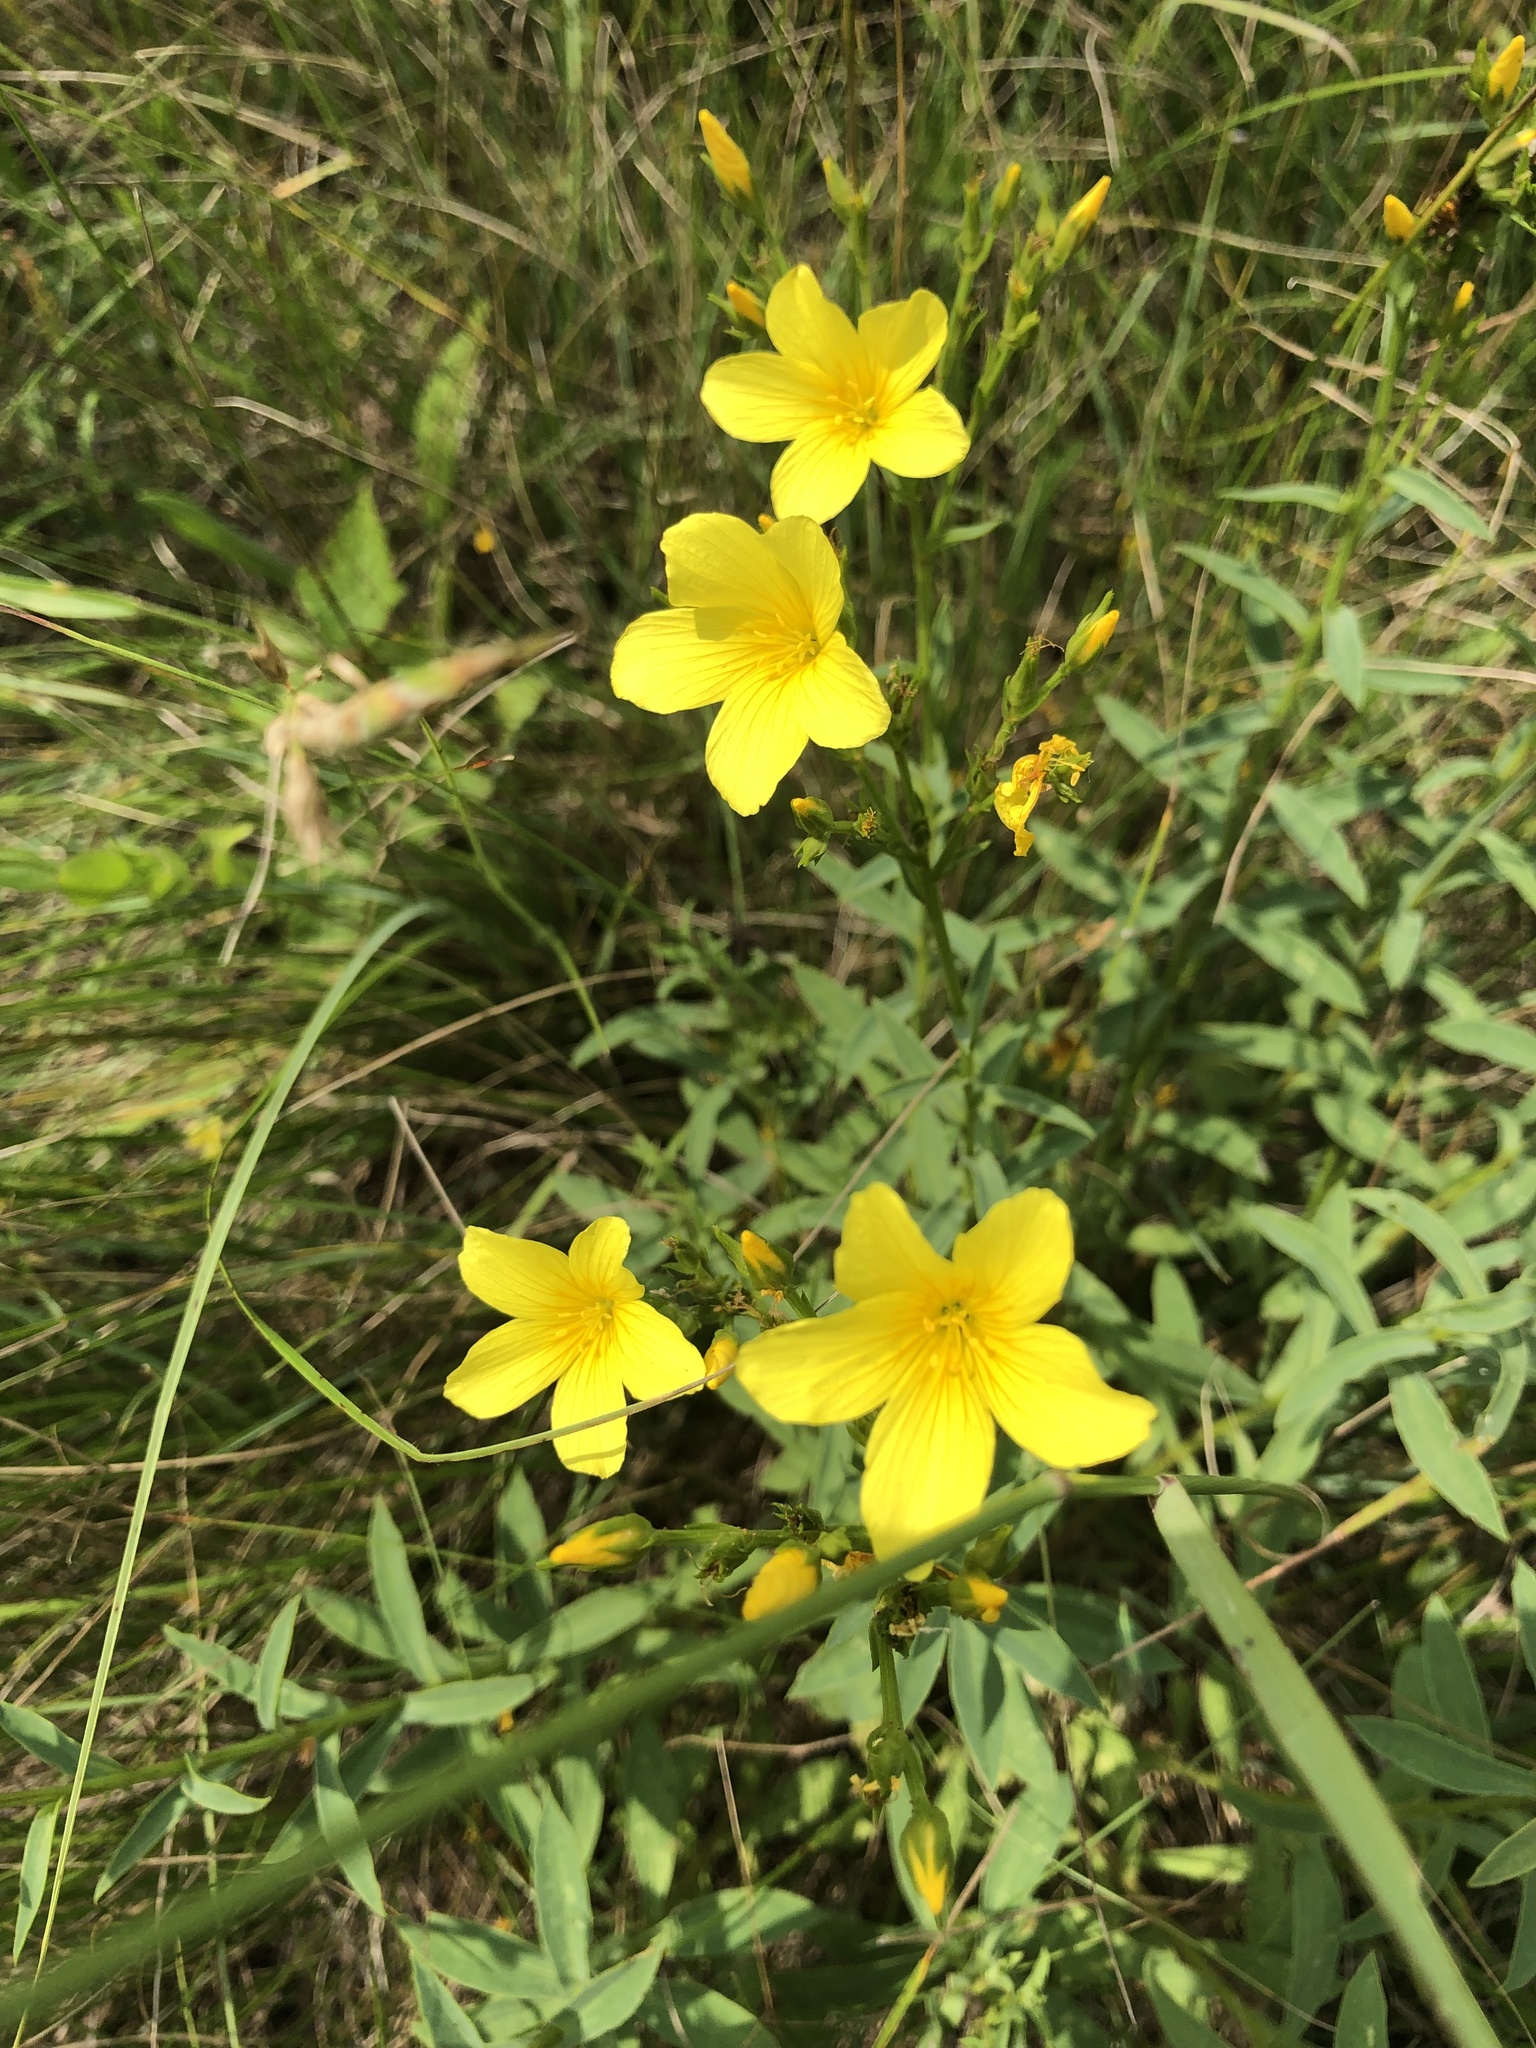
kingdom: Plantae
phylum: Tracheophyta
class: Magnoliopsida
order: Malpighiales
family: Linaceae
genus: Linum
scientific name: Linum flavum
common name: Yellow flax
